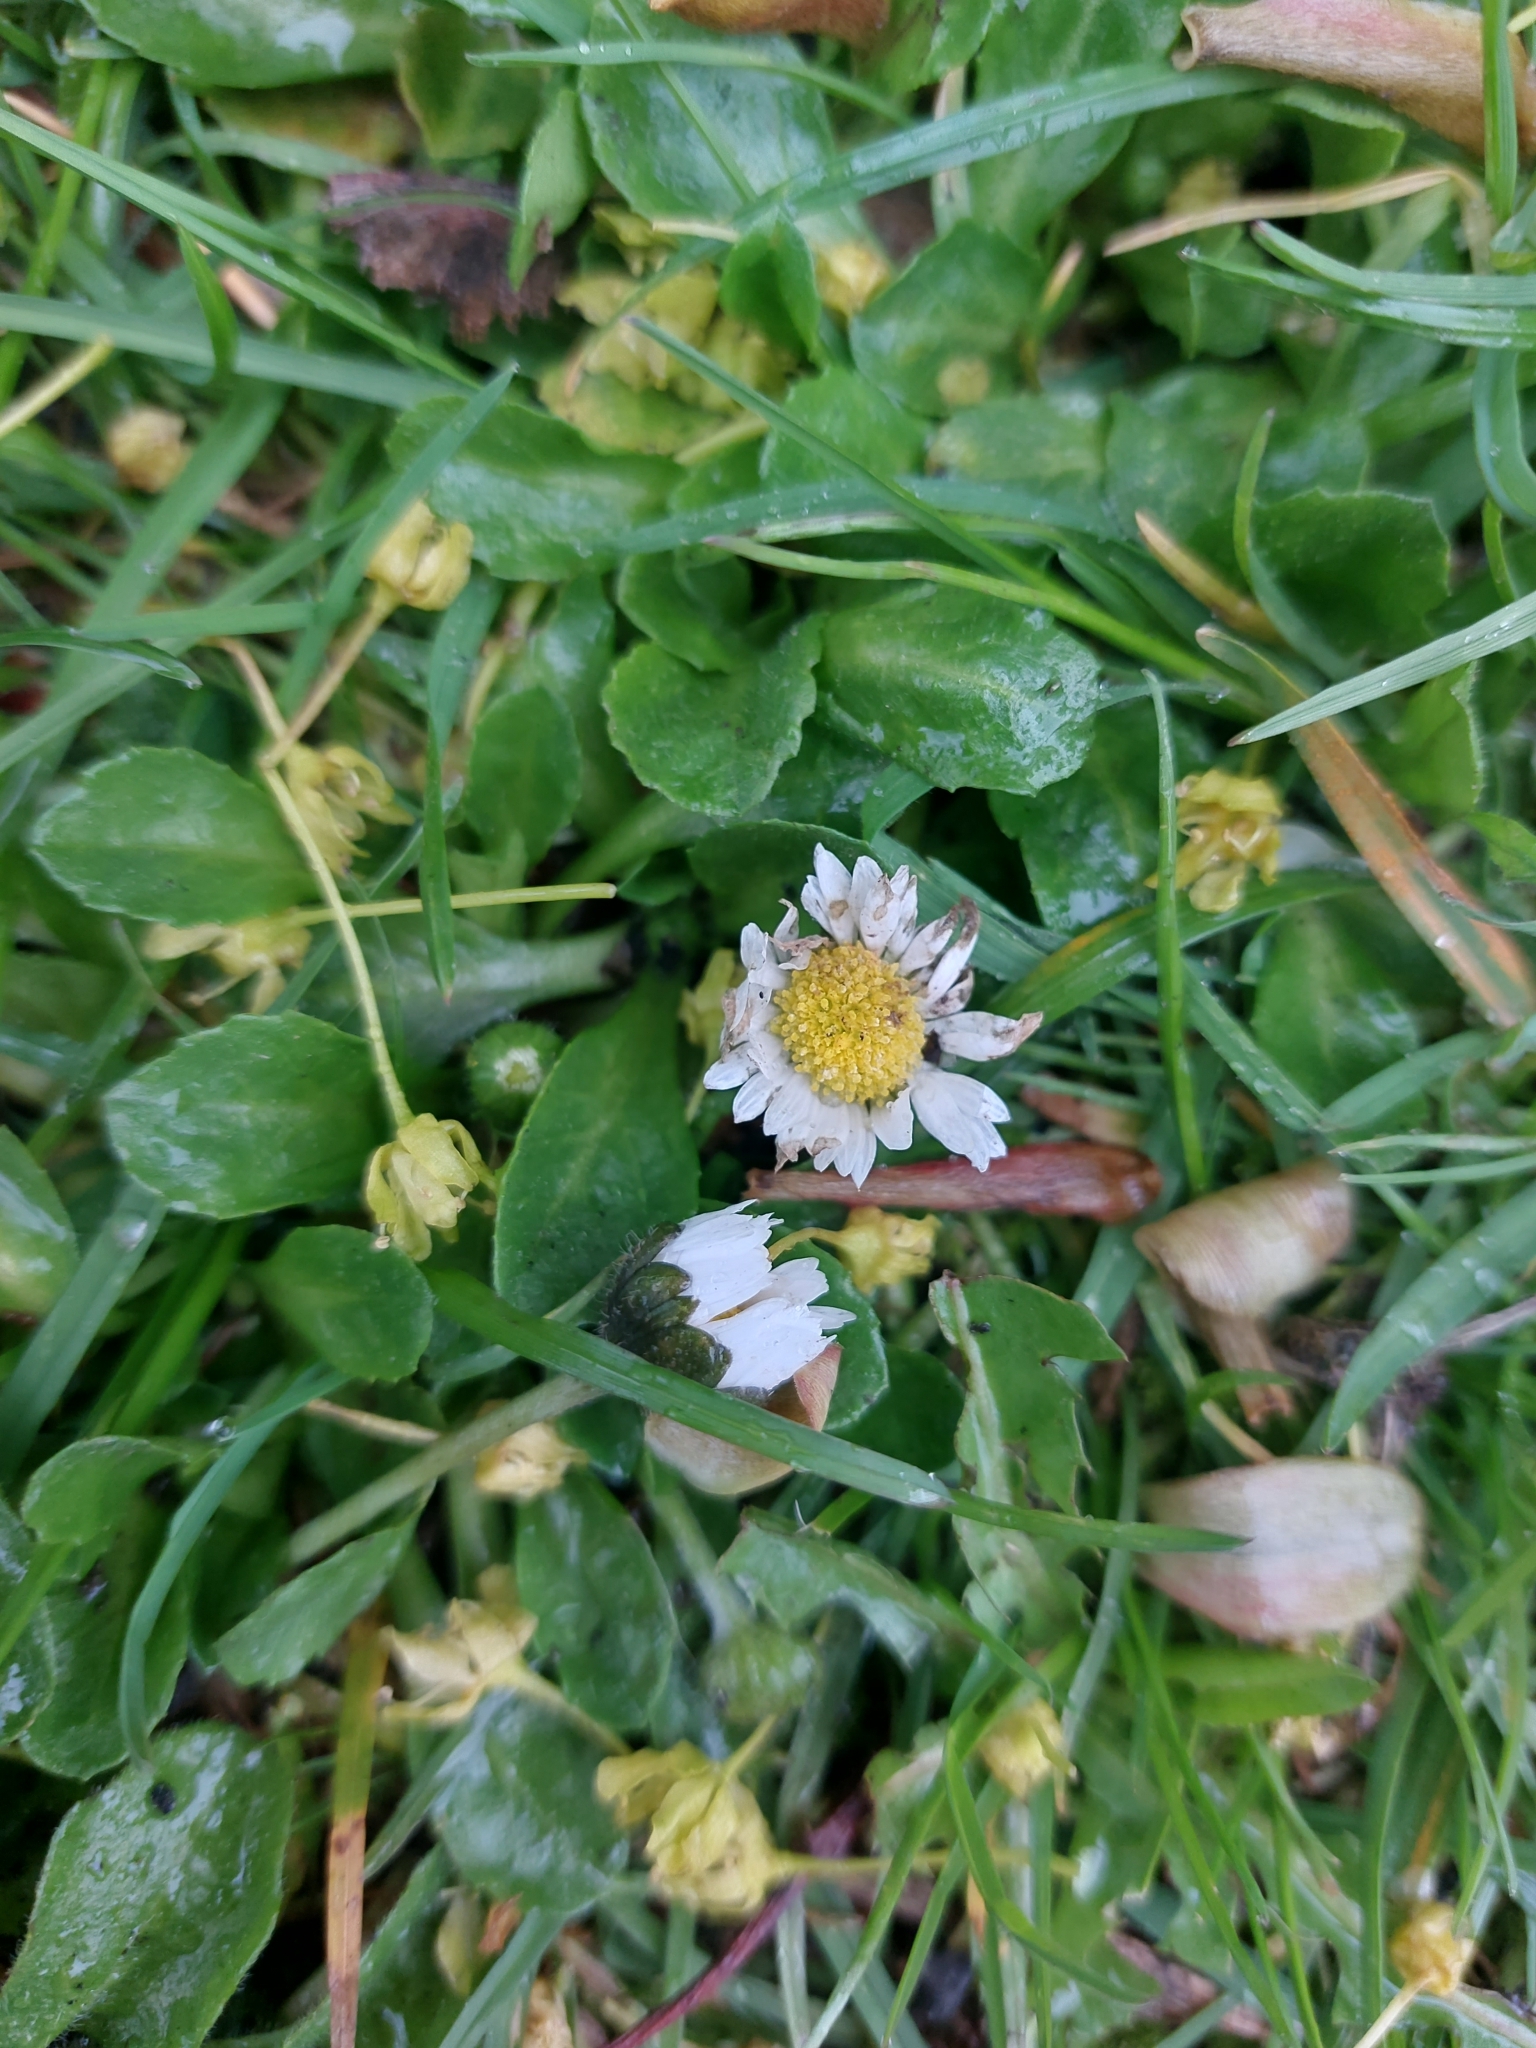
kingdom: Plantae
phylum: Tracheophyta
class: Magnoliopsida
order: Asterales
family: Asteraceae
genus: Bellis
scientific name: Bellis perennis
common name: Lawndaisy
